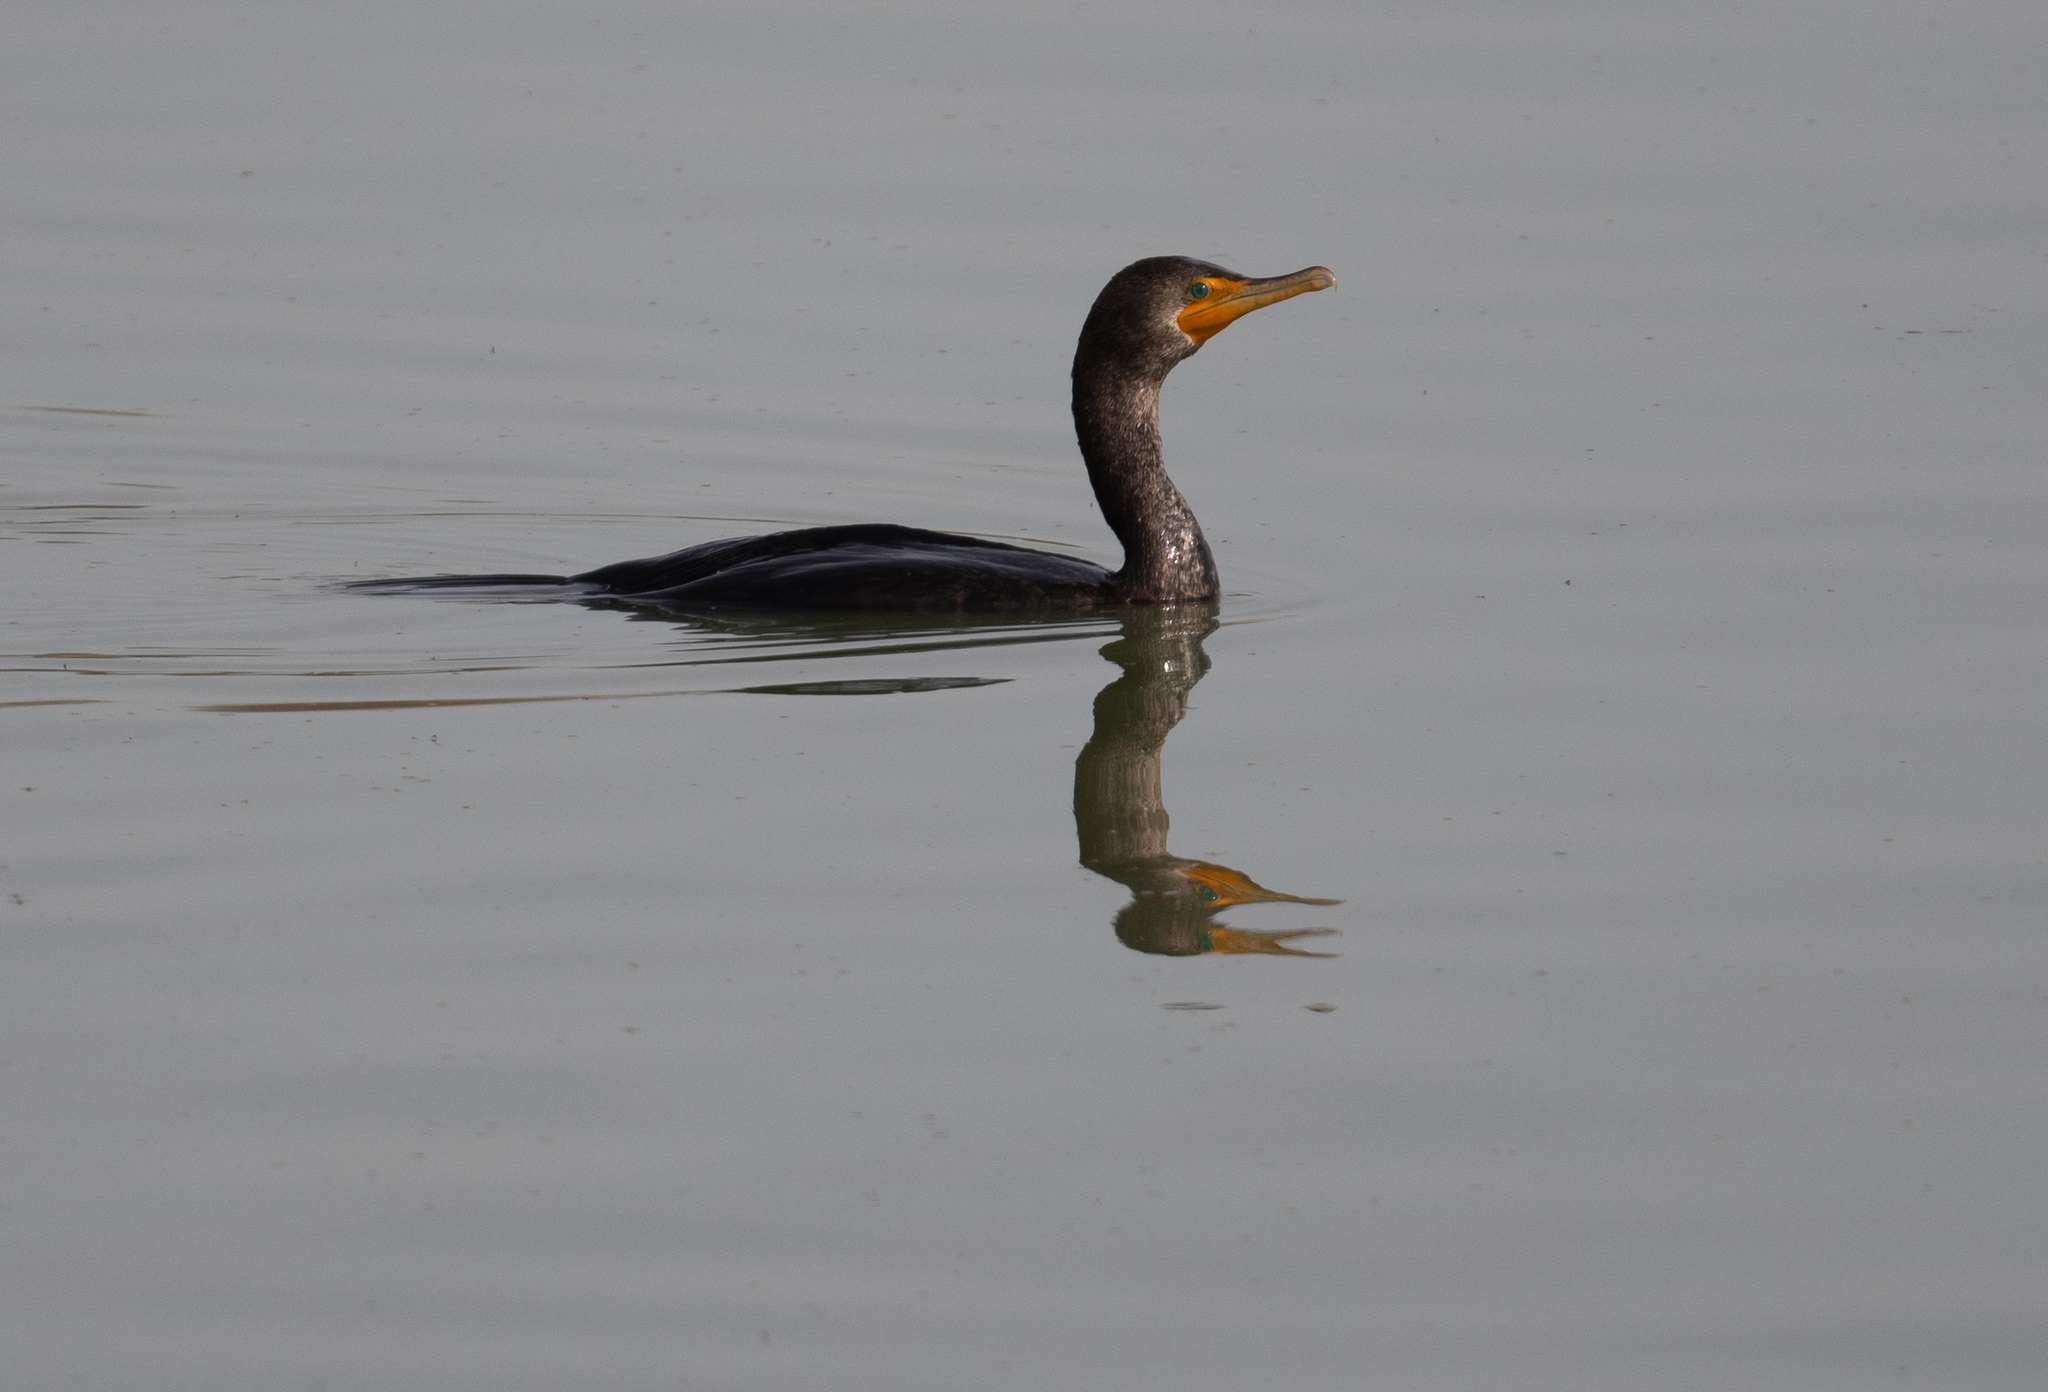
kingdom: Animalia
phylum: Chordata
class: Aves
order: Suliformes
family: Phalacrocoracidae
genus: Phalacrocorax
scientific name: Phalacrocorax auritus
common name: Double-crested cormorant
